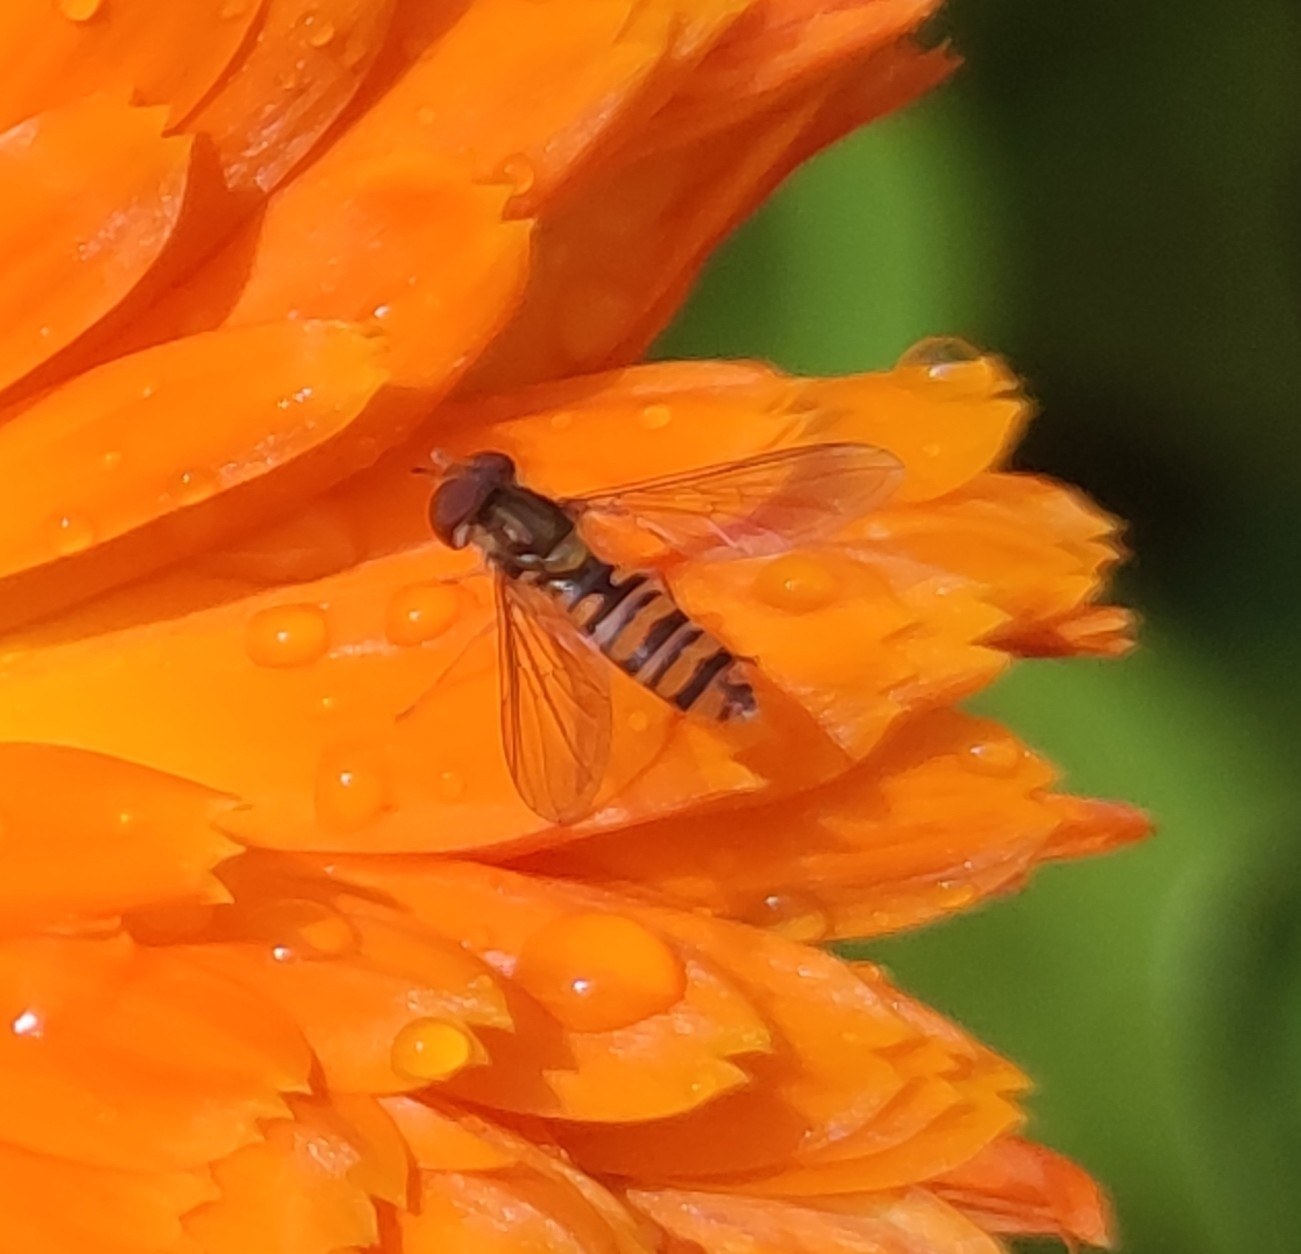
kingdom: Animalia
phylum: Arthropoda
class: Insecta
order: Diptera
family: Syrphidae
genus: Episyrphus
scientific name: Episyrphus balteatus
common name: Marmalade hoverfly
